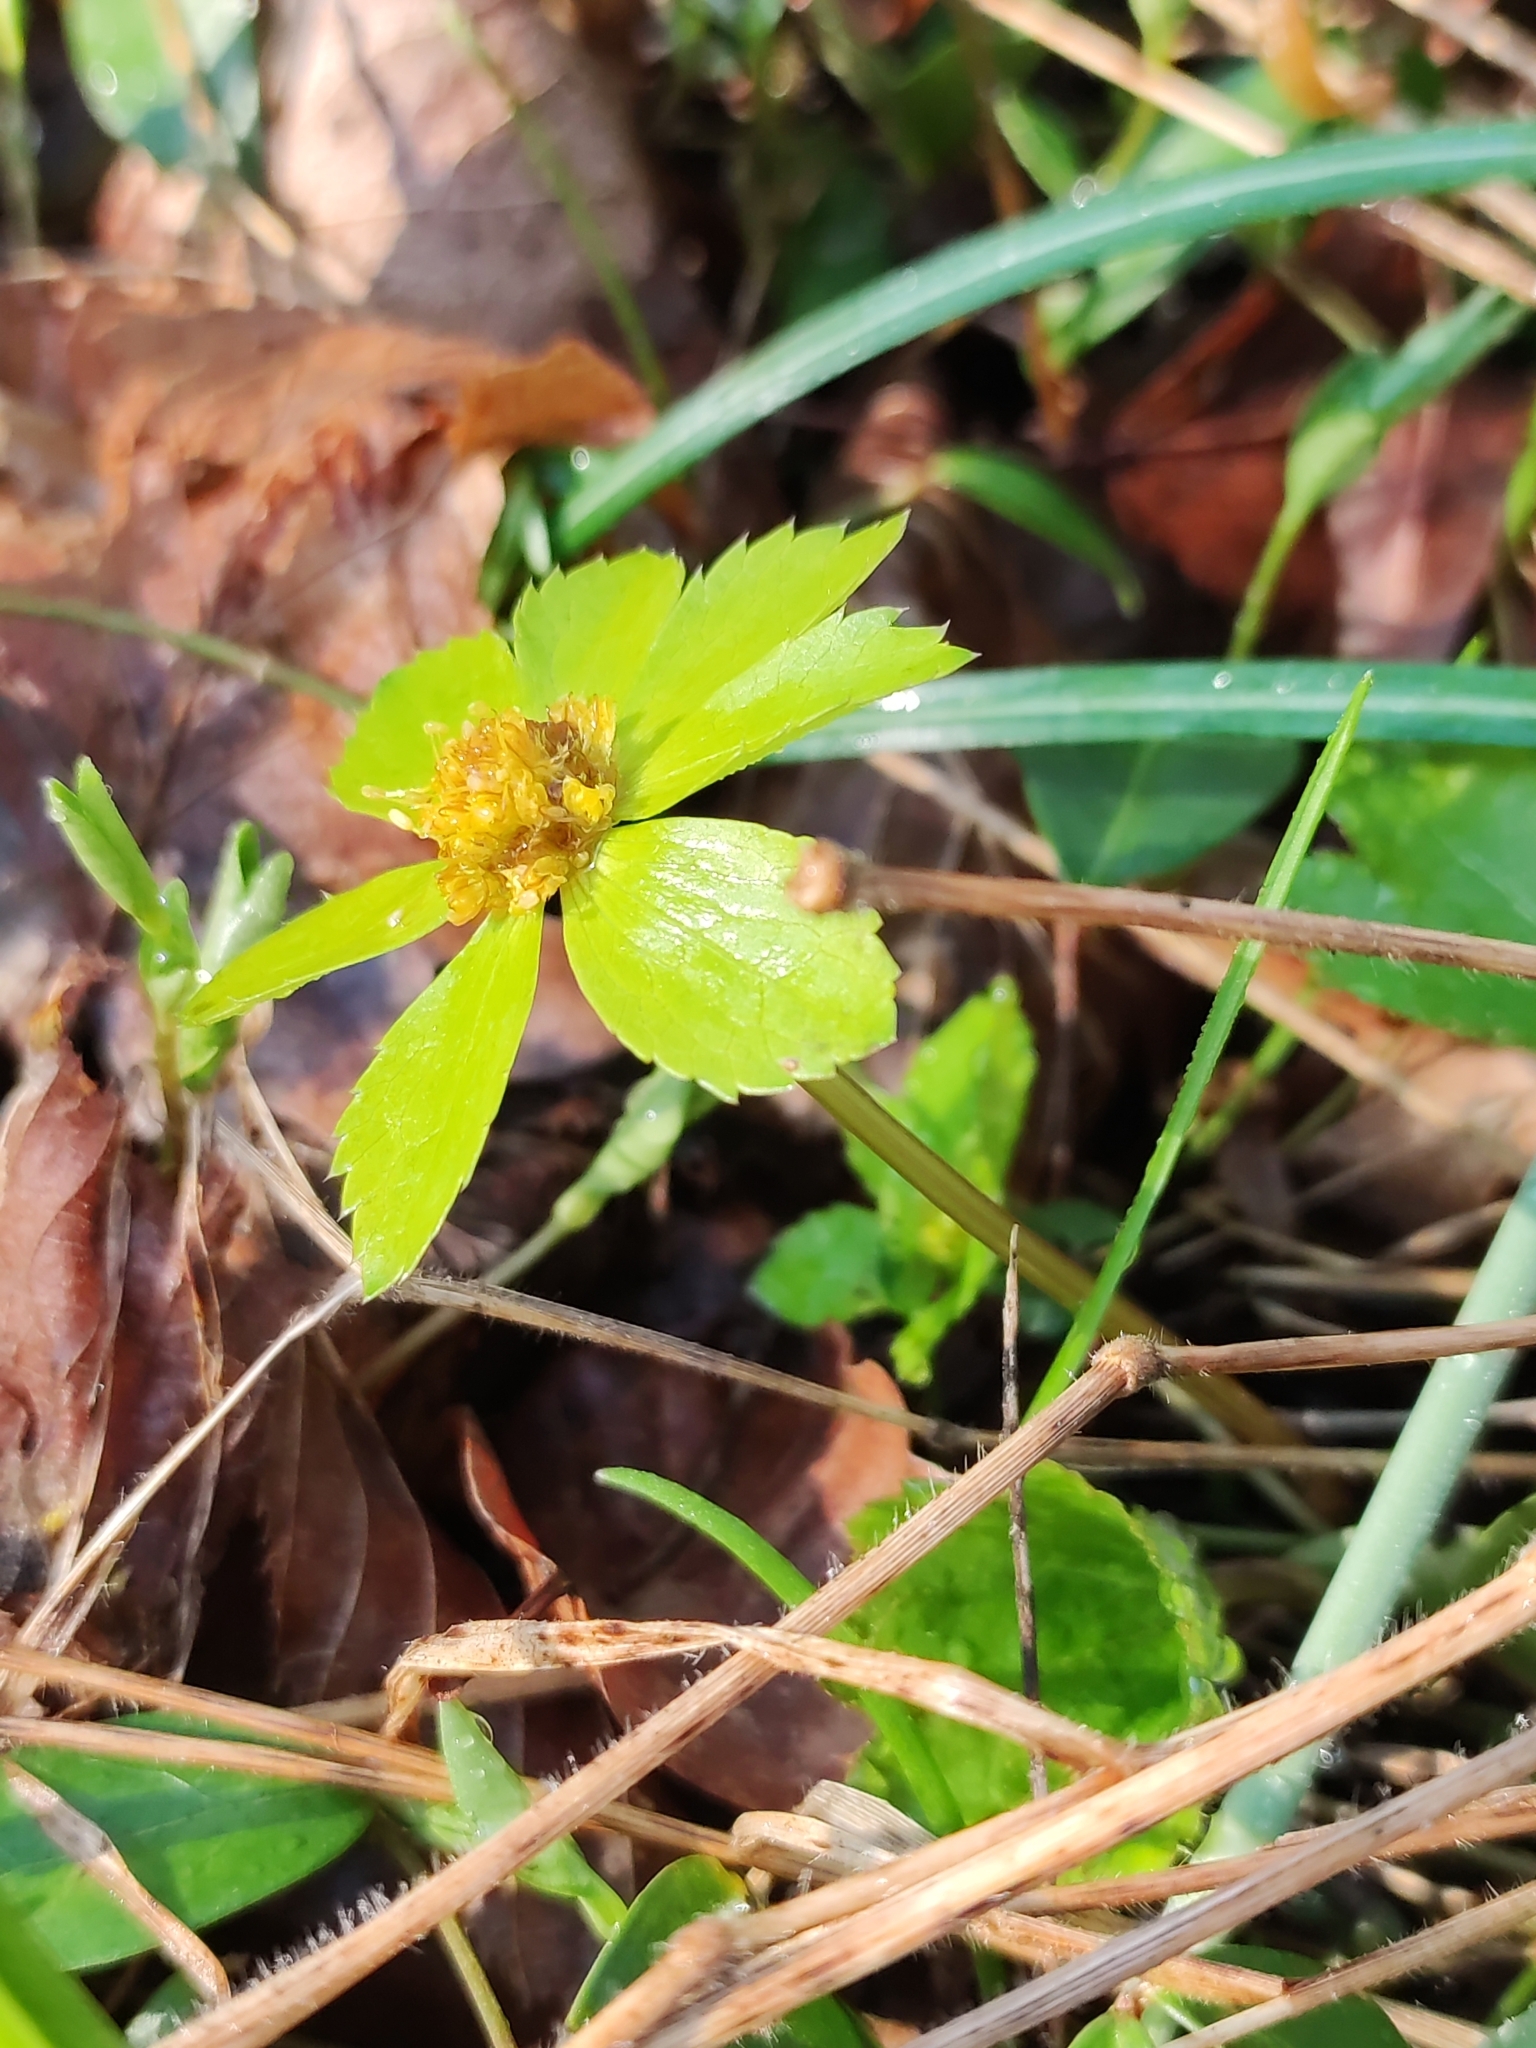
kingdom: Plantae
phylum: Tracheophyta
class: Magnoliopsida
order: Apiales
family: Apiaceae
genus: Sanicula
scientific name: Sanicula epipactis
